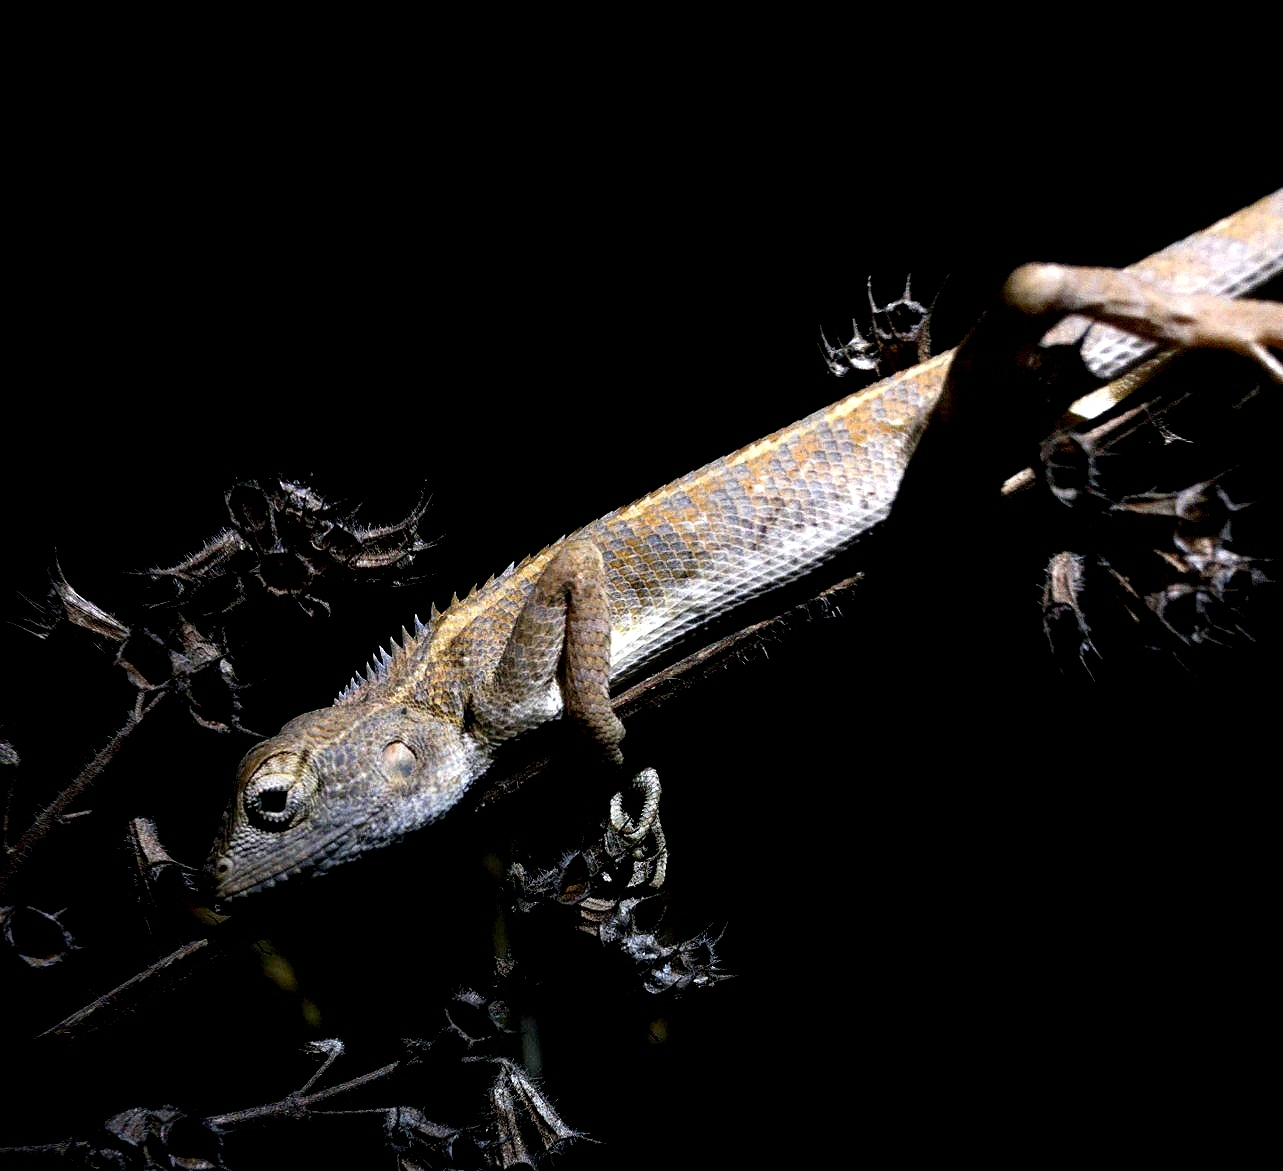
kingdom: Animalia
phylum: Chordata
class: Squamata
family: Agamidae
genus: Calotes
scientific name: Calotes versicolor
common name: Oriental garden lizard
